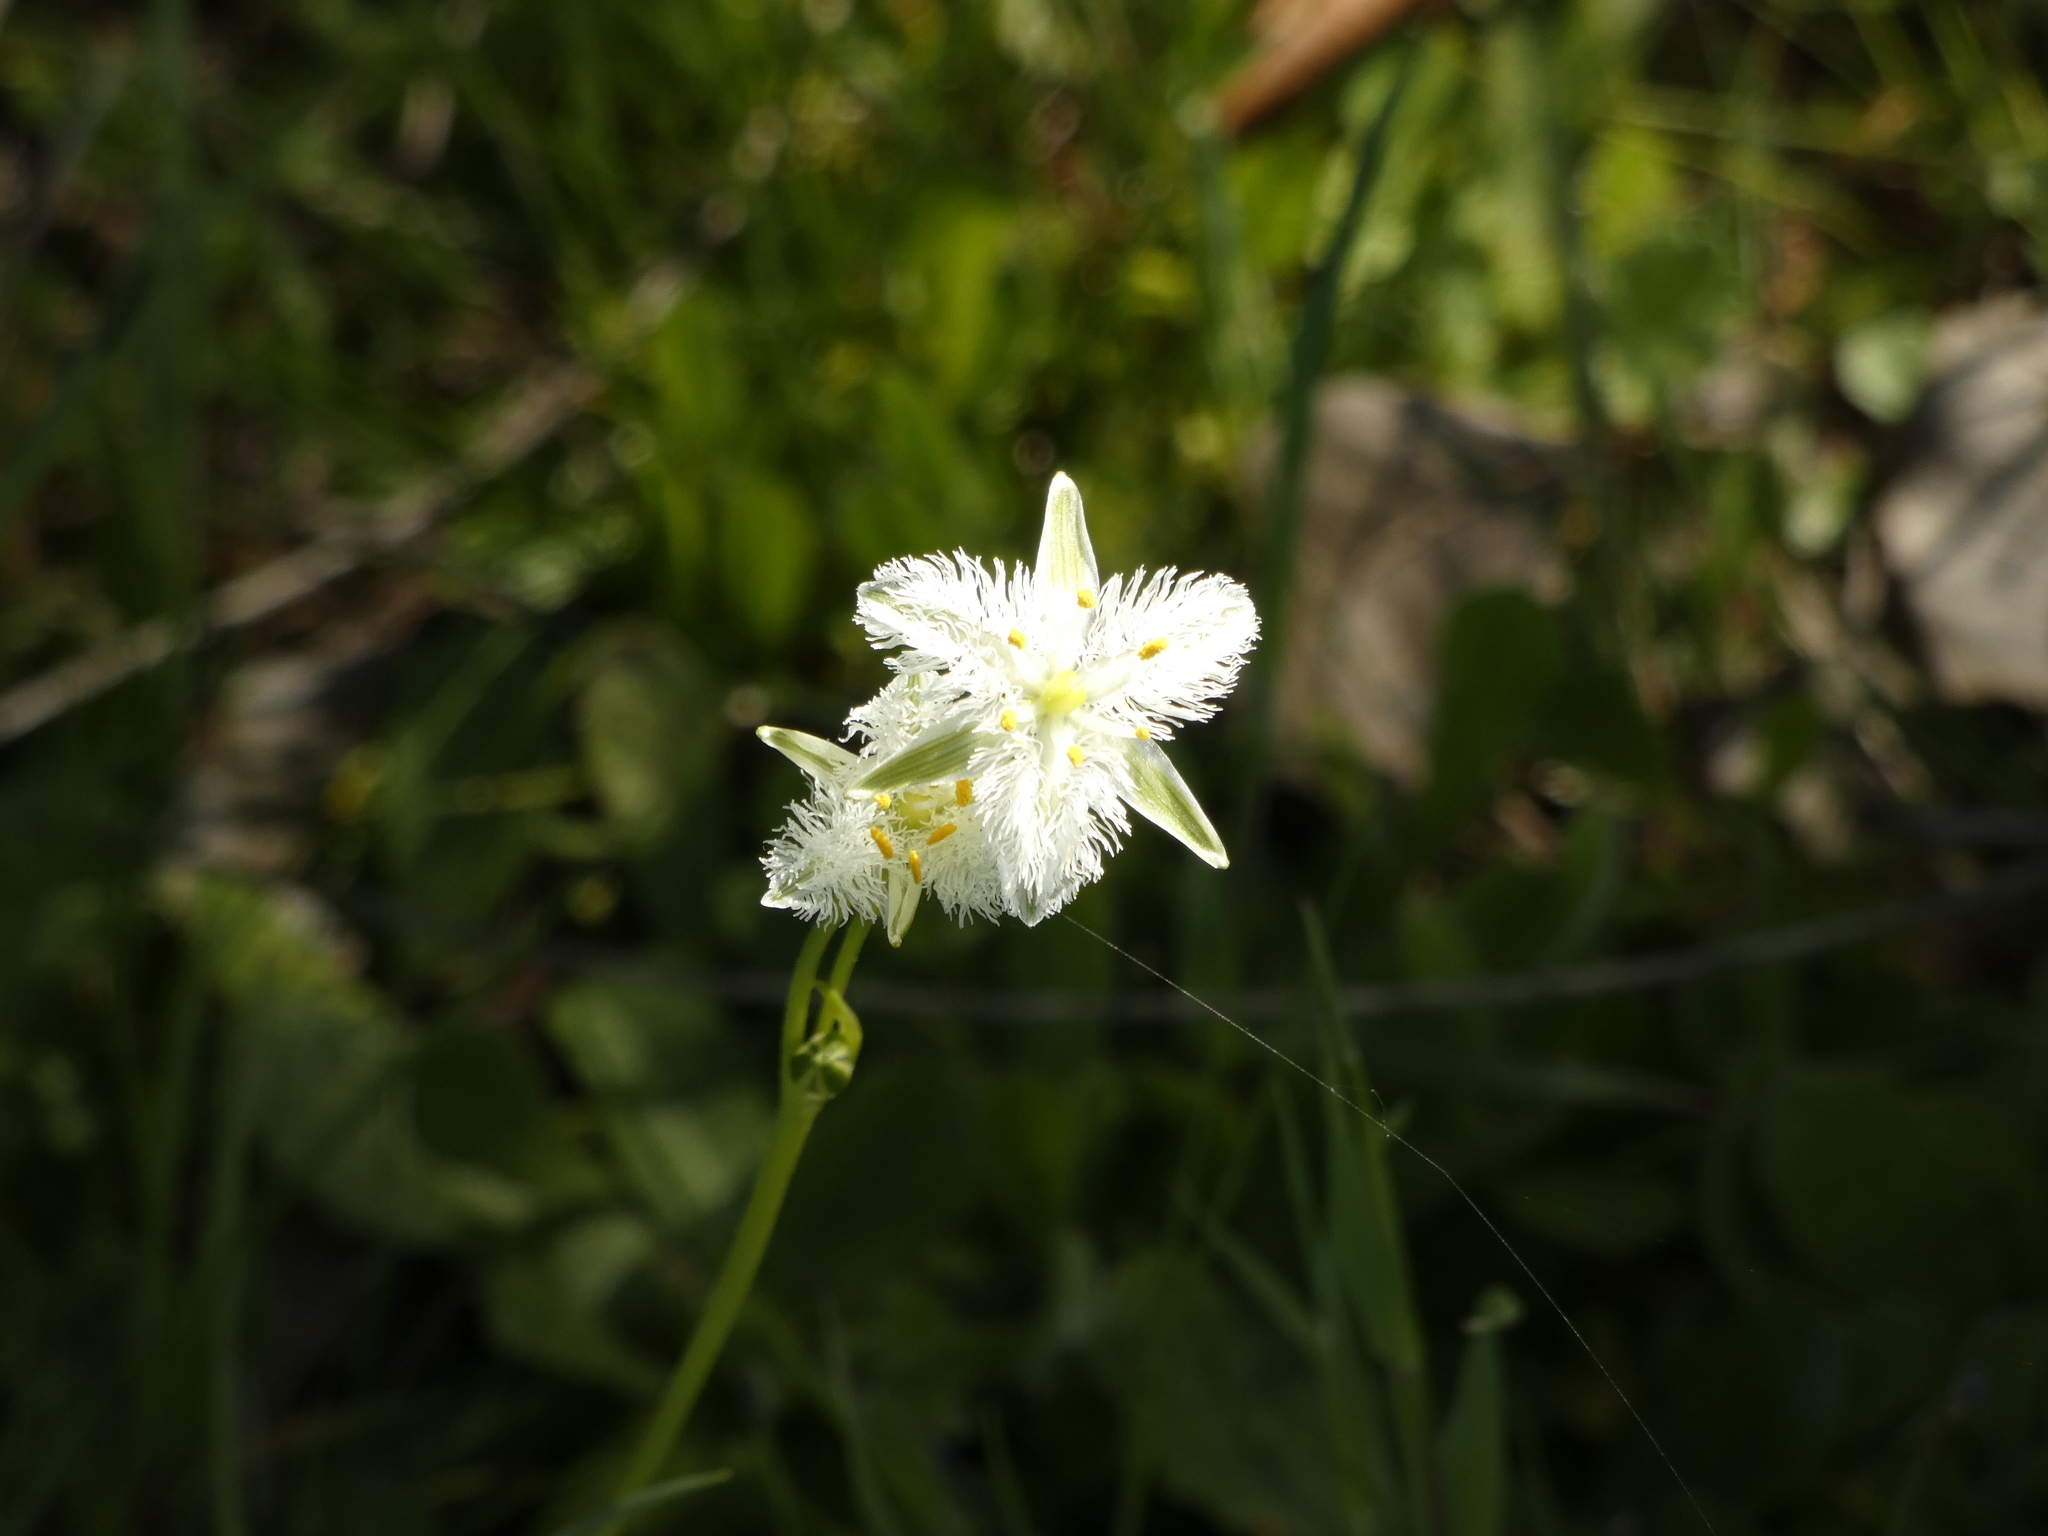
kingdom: Plantae
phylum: Tracheophyta
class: Liliopsida
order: Asparagales
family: Asparagaceae
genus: Trichopetalum
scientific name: Trichopetalum plumosum
